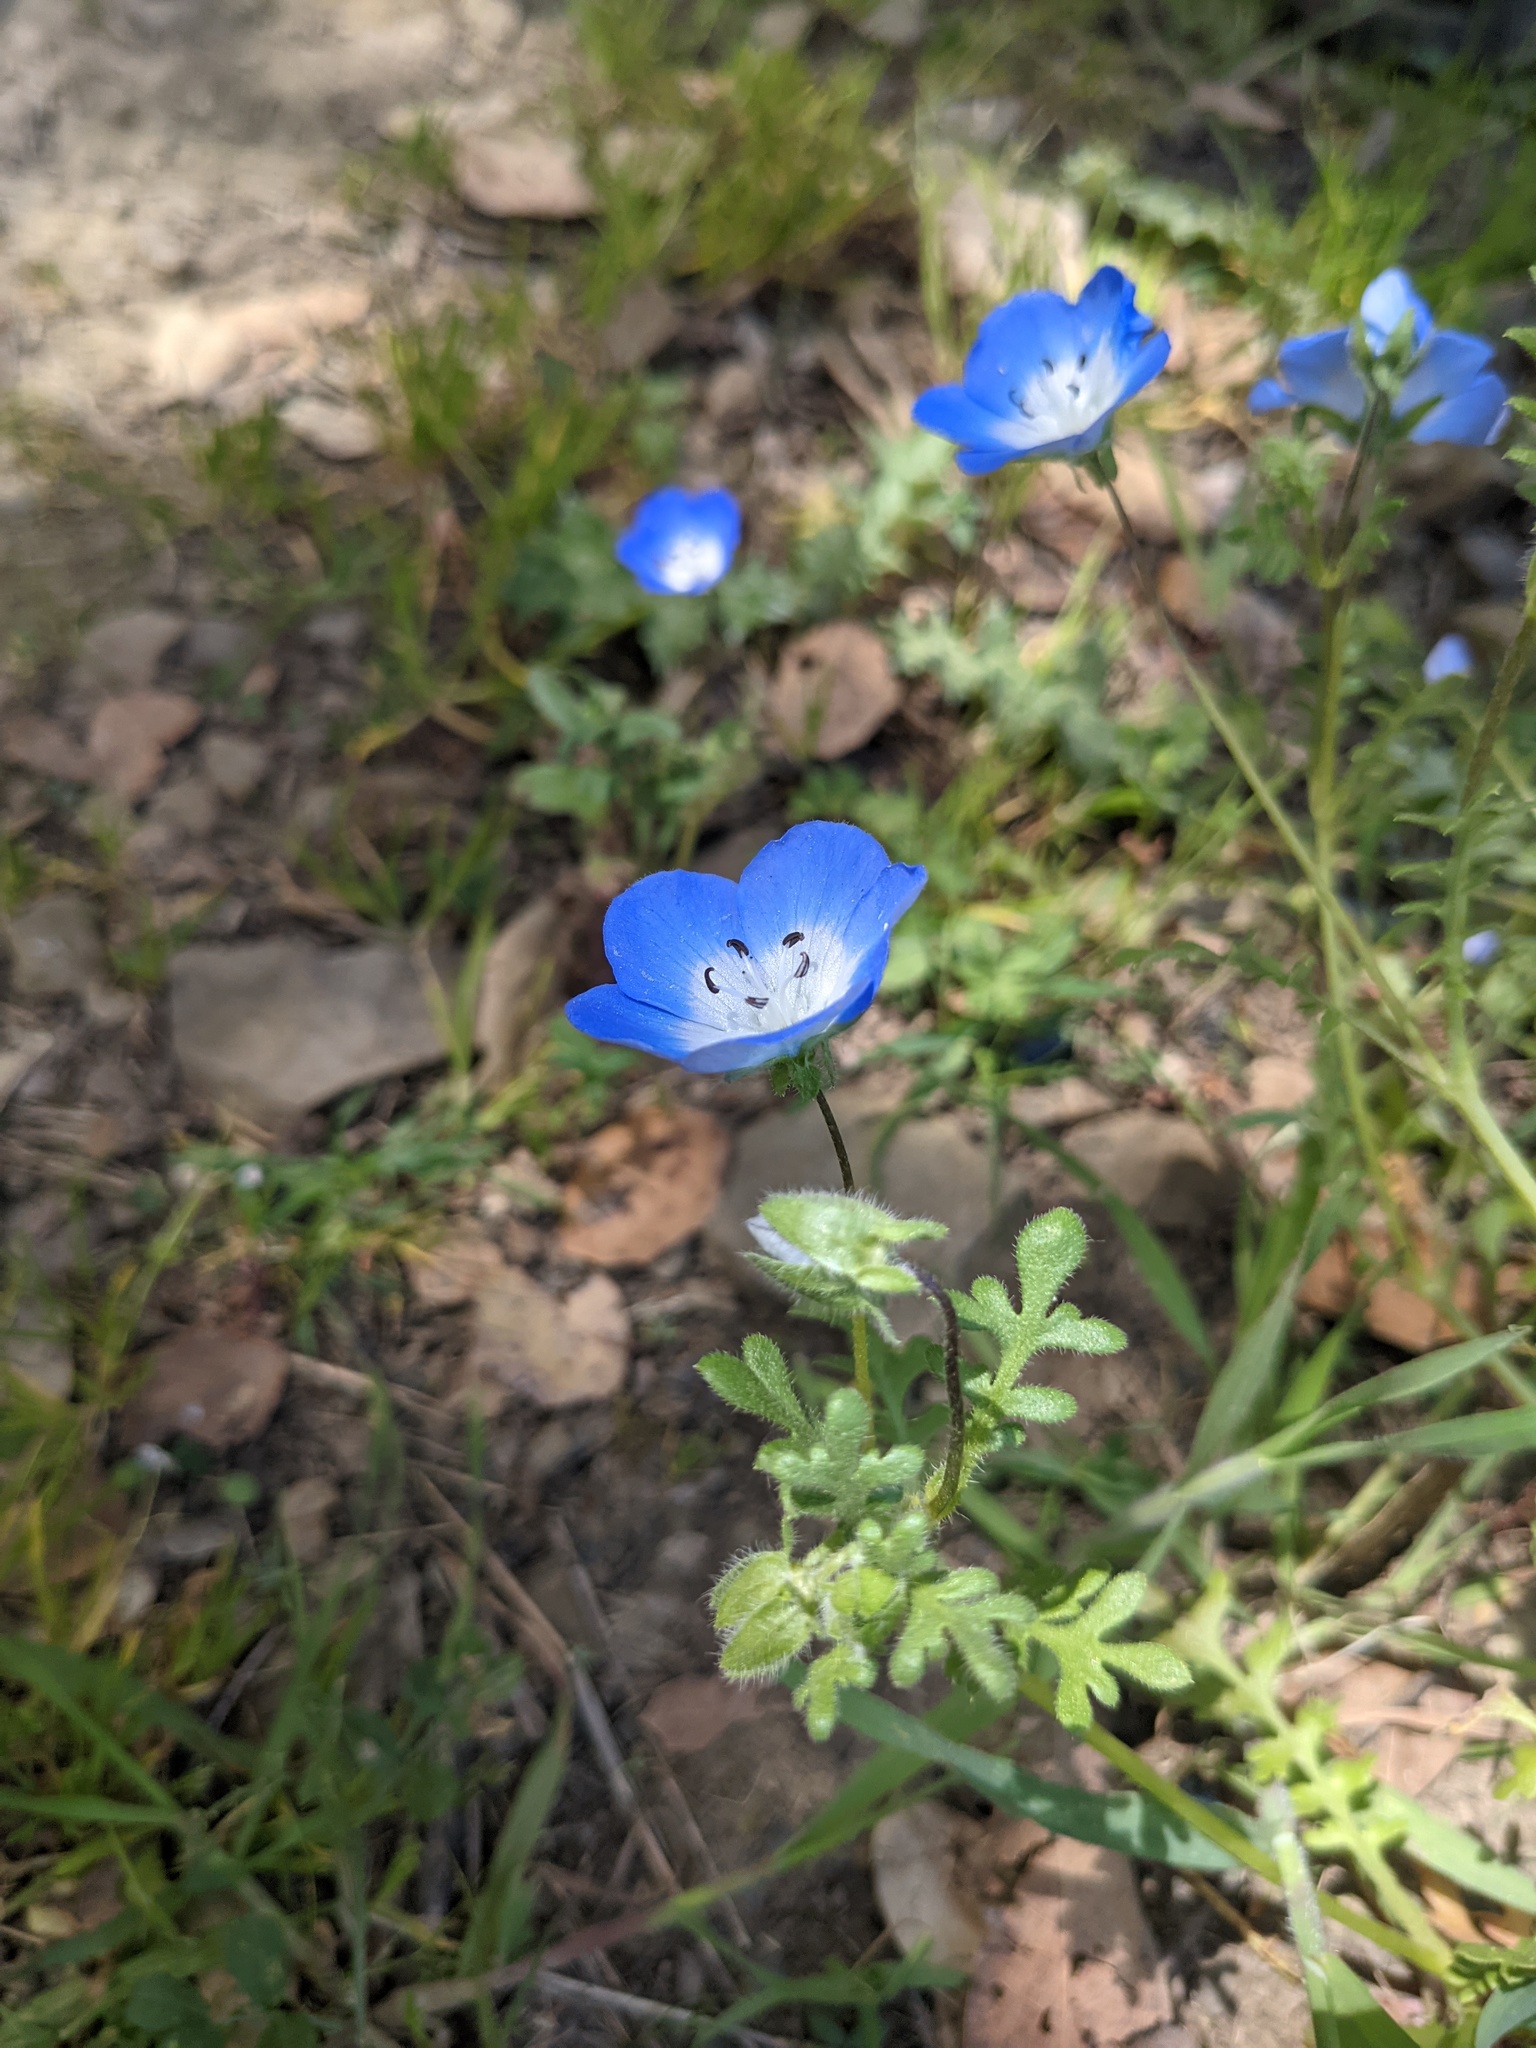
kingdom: Plantae
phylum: Tracheophyta
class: Magnoliopsida
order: Boraginales
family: Hydrophyllaceae
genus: Nemophila
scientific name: Nemophila menziesii
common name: Baby's-blue-eyes
